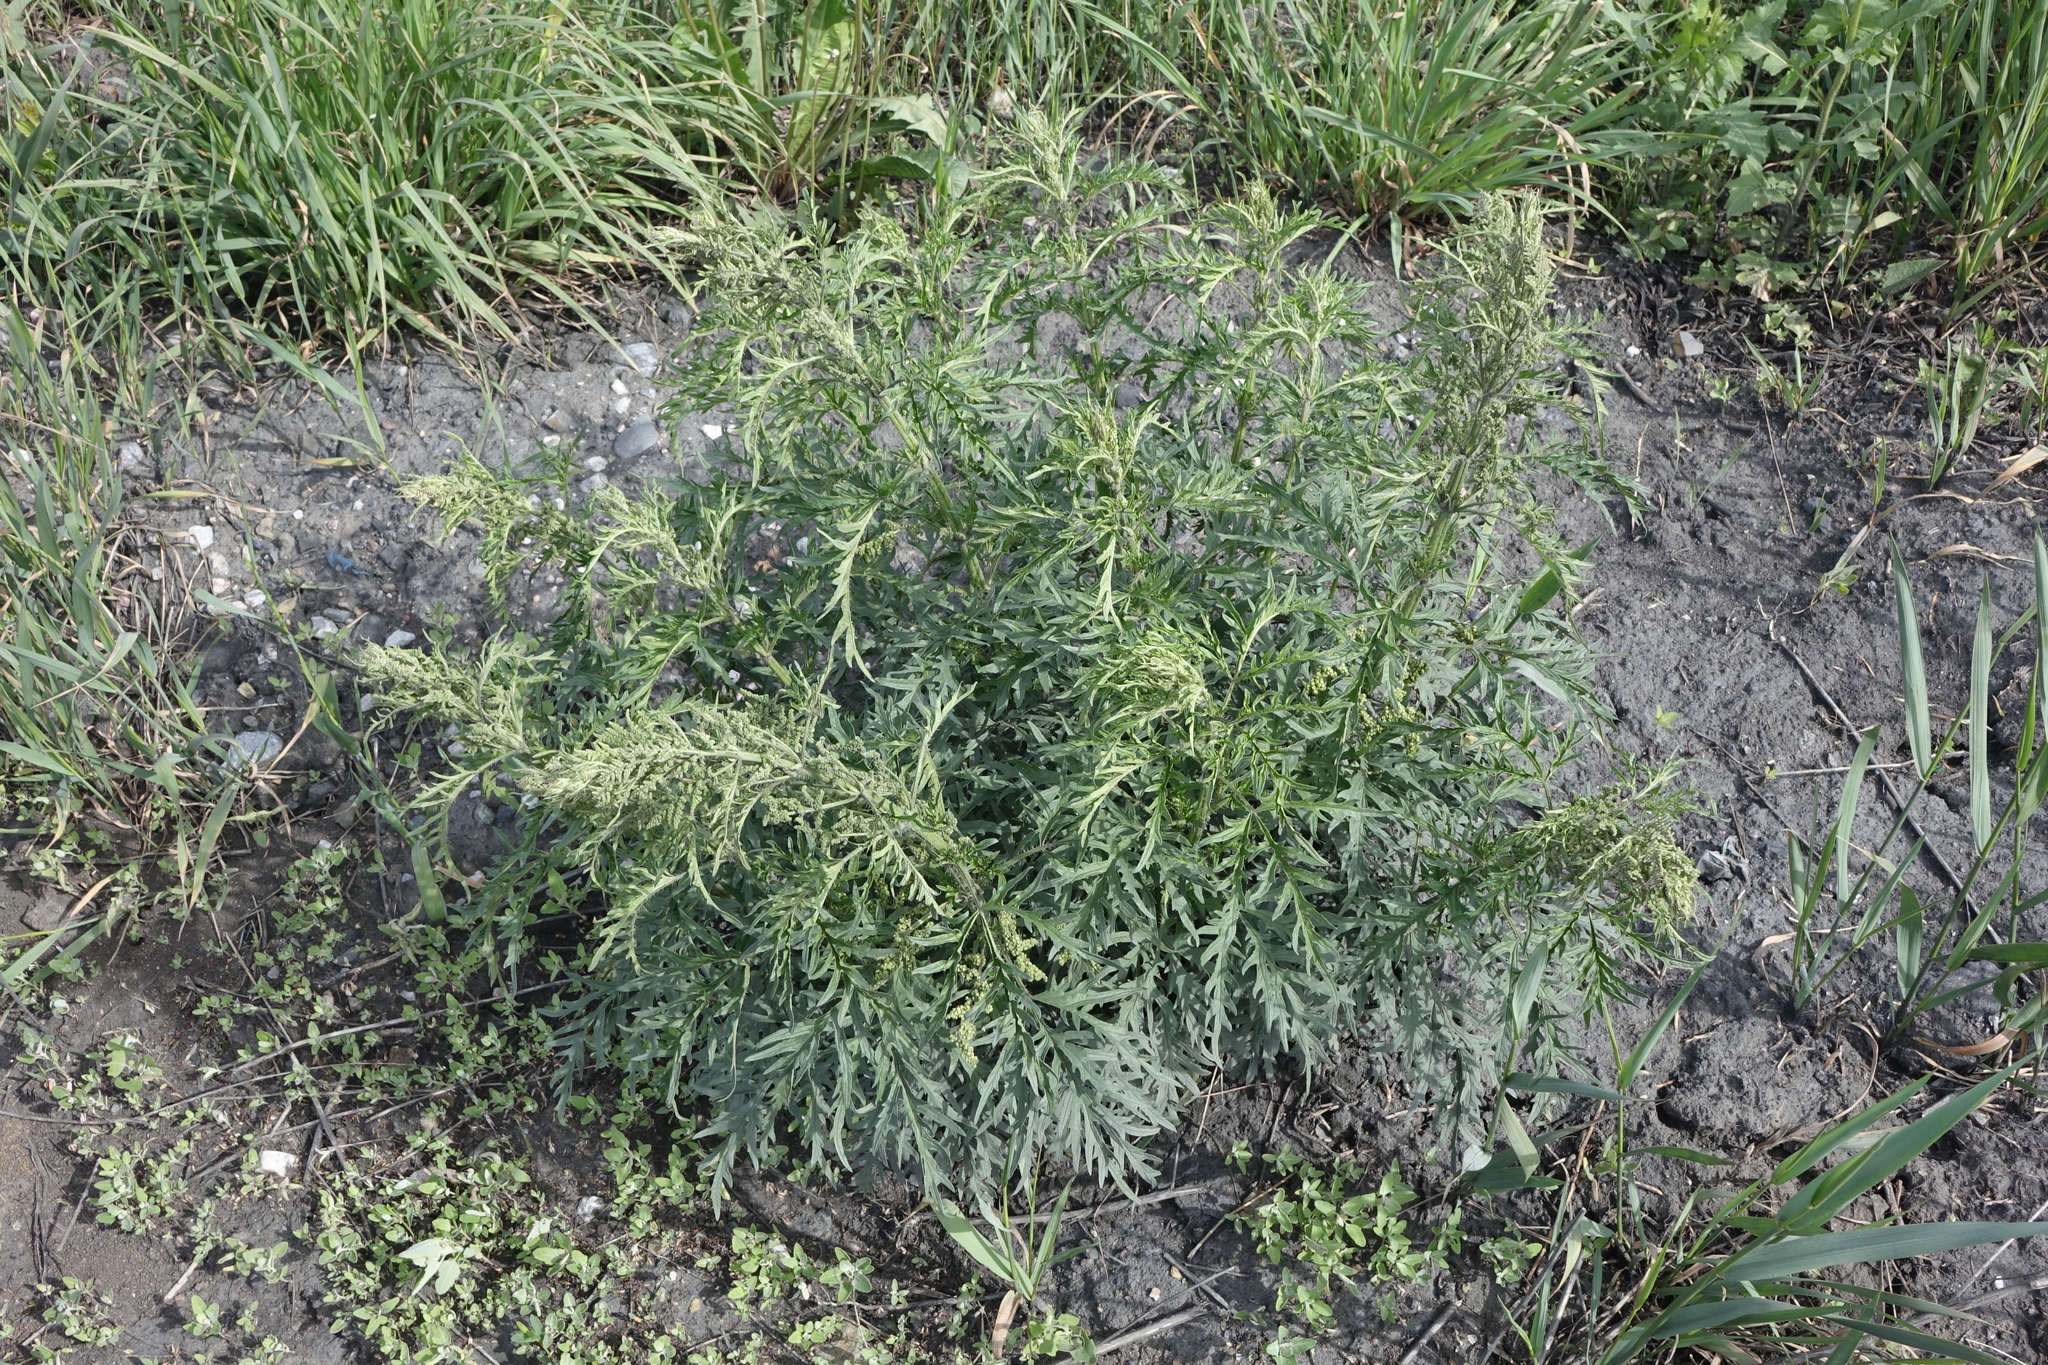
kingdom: Plantae
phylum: Tracheophyta
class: Magnoliopsida
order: Rosales
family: Urticaceae
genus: Urtica
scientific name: Urtica cannabina
